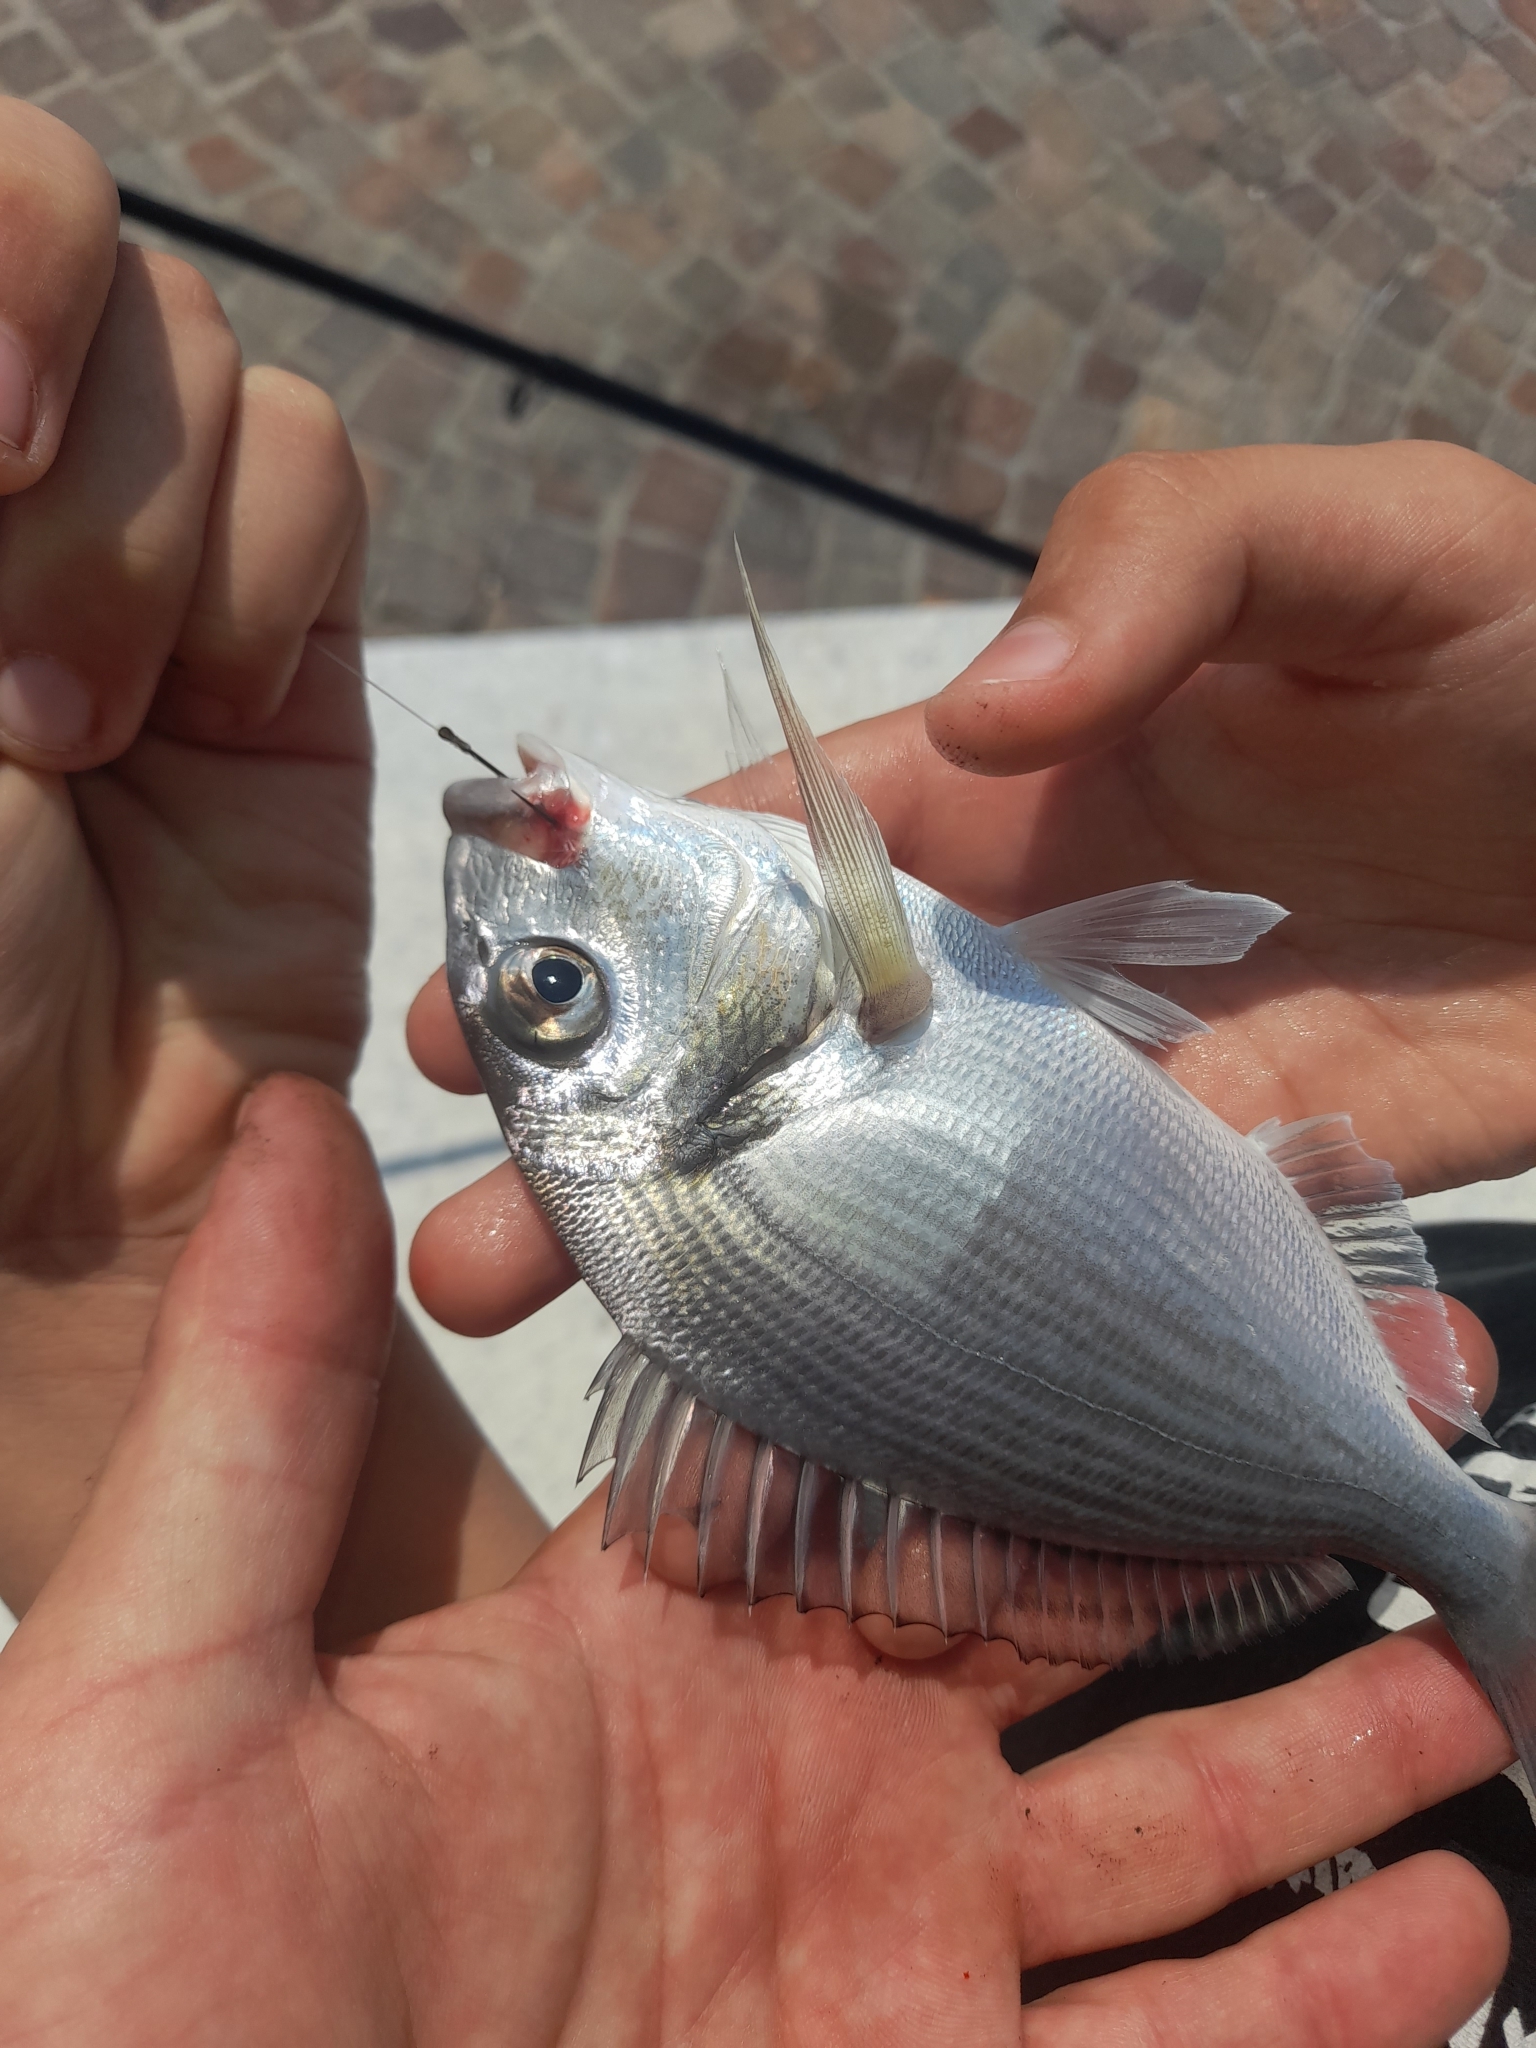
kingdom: Animalia
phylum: Chordata
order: Perciformes
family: Sparidae
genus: Sparus
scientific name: Sparus aurata
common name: Gilthead
